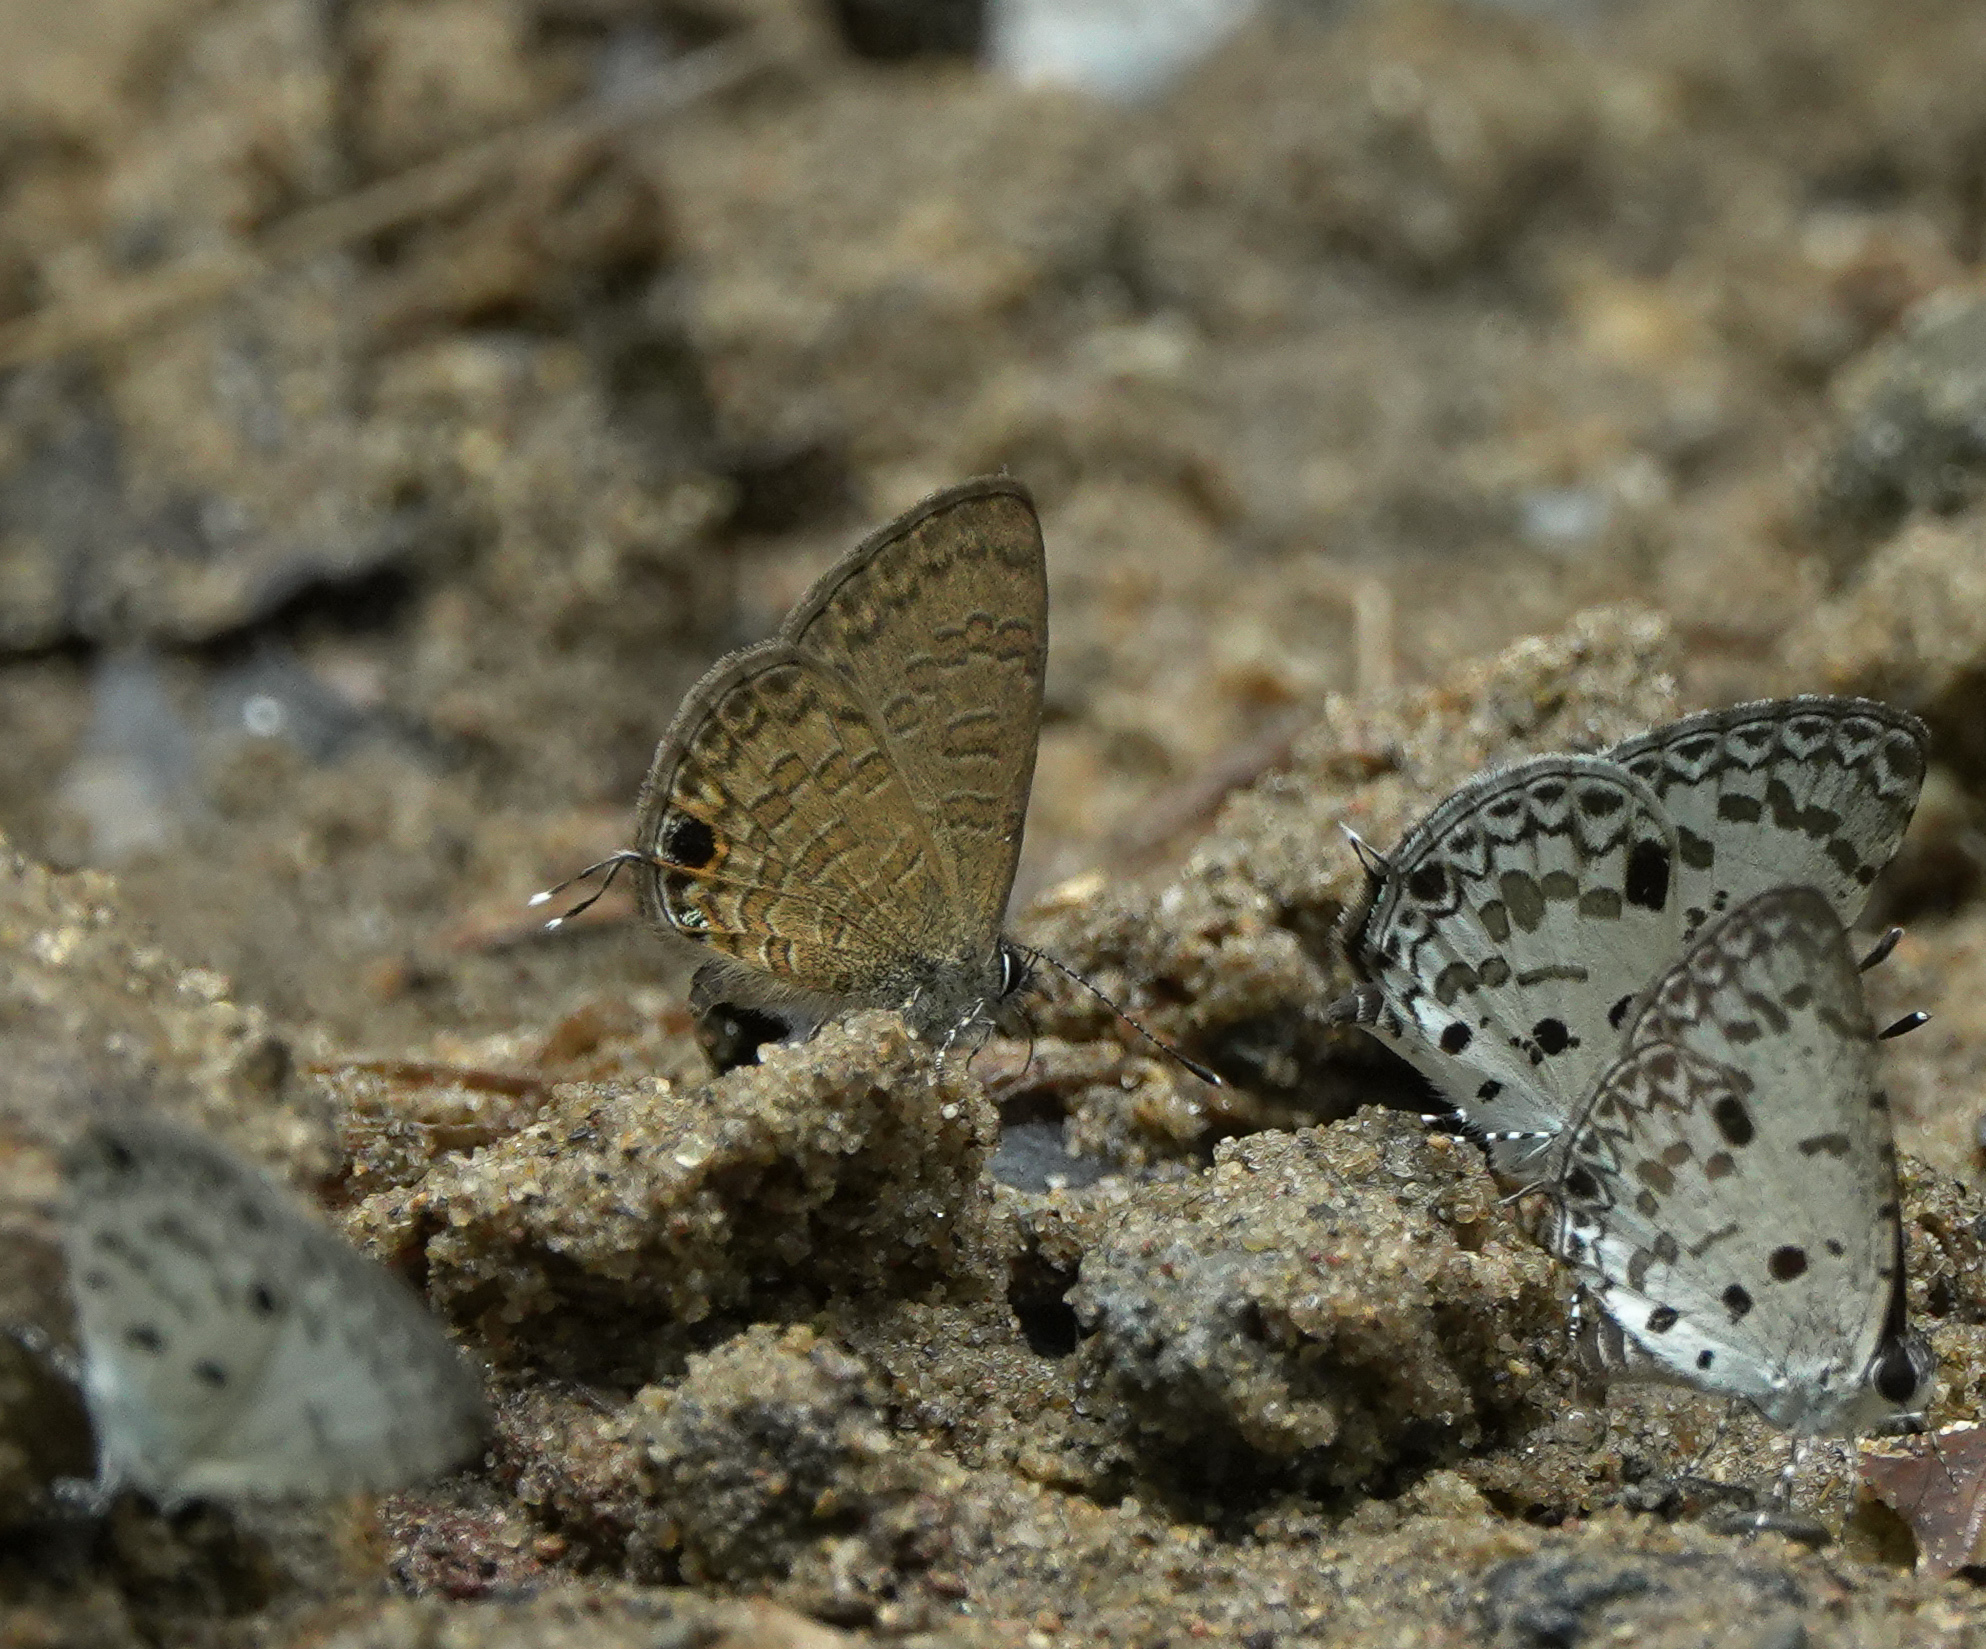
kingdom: Animalia
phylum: Arthropoda
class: Insecta
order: Lepidoptera
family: Lycaenidae
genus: Prosotas
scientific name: Prosotas nora
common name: Common line blue
